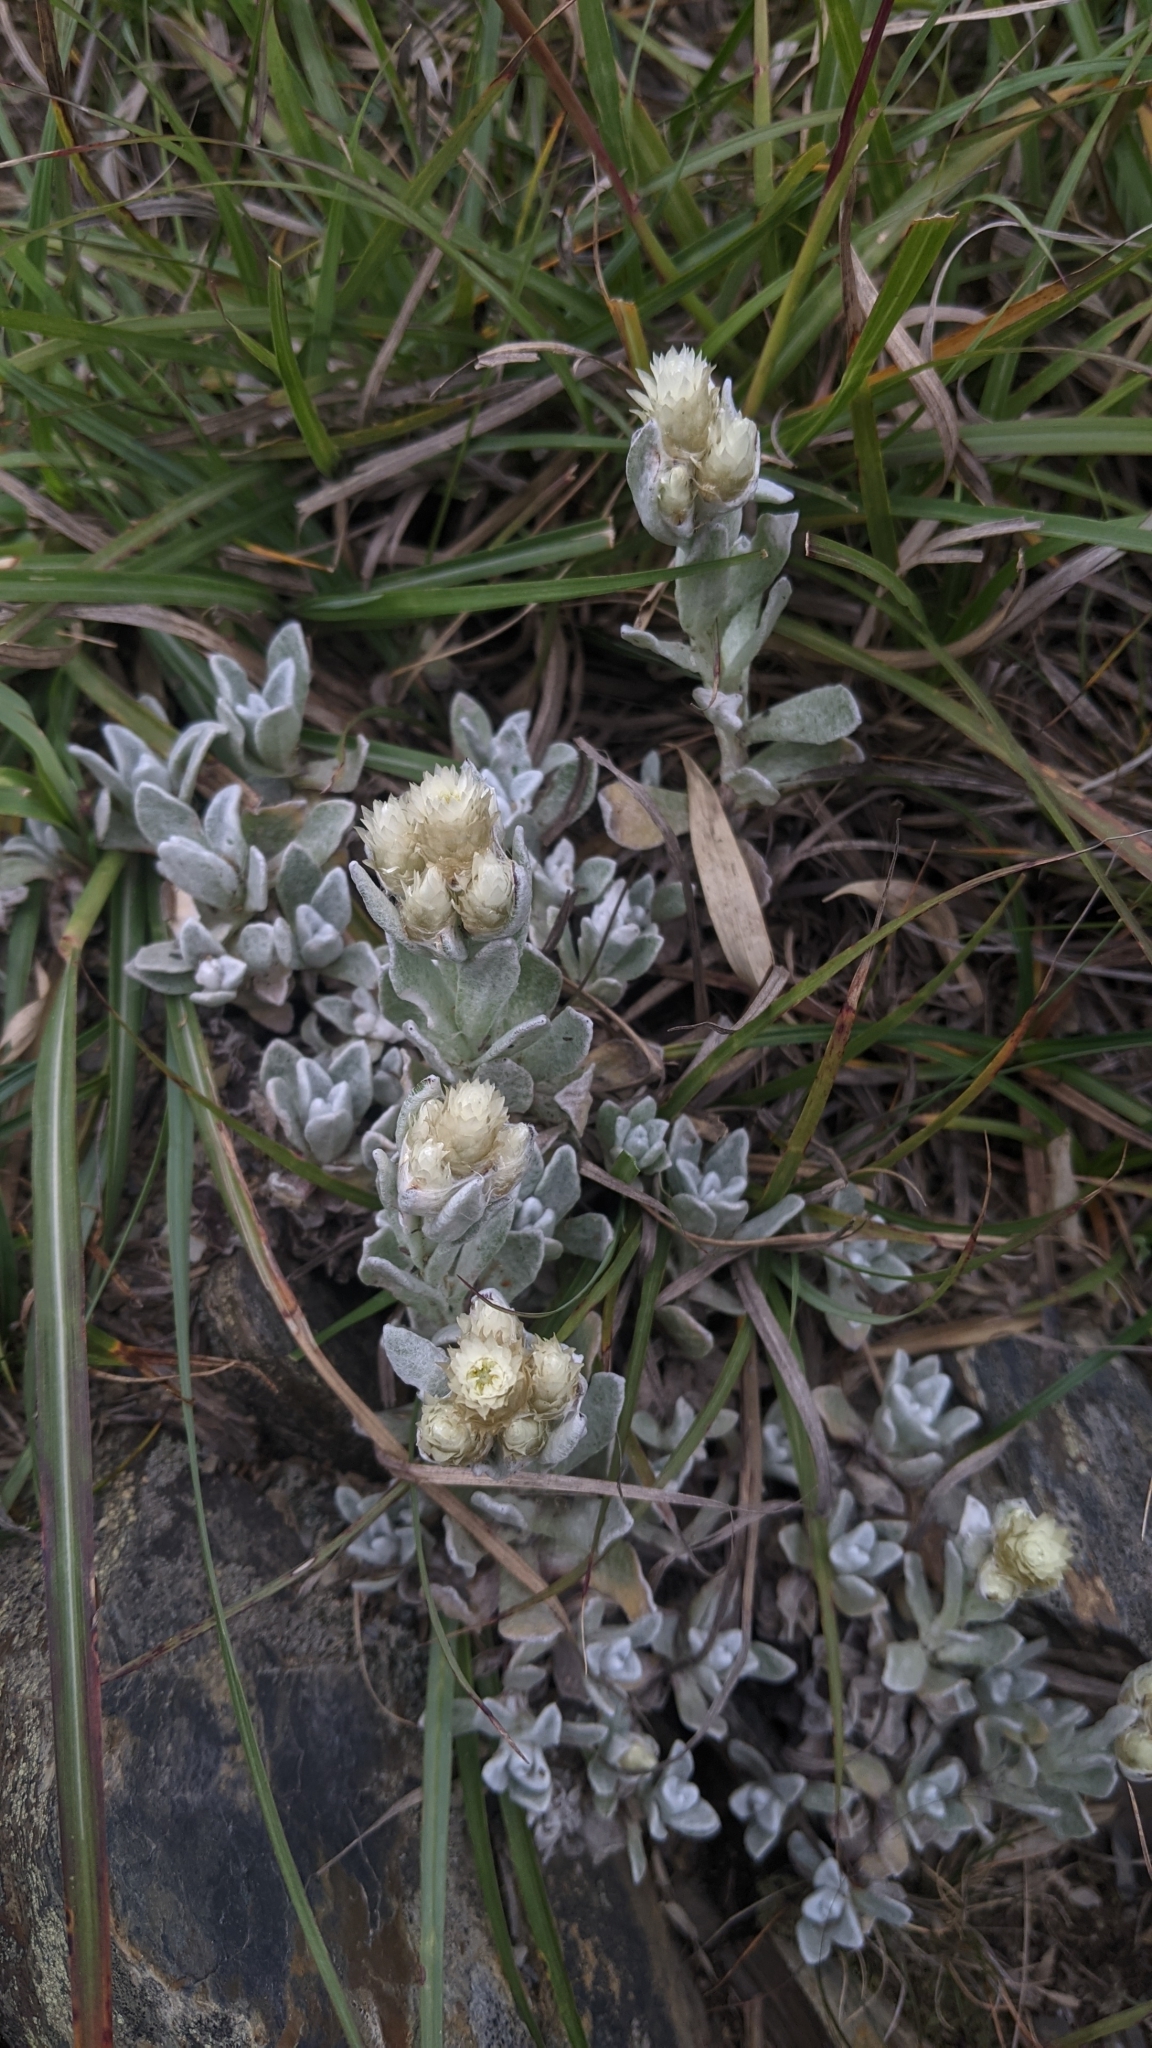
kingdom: Plantae
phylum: Tracheophyta
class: Magnoliopsida
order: Asterales
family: Asteraceae
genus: Anaphalis
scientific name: Anaphalis nepalensis
